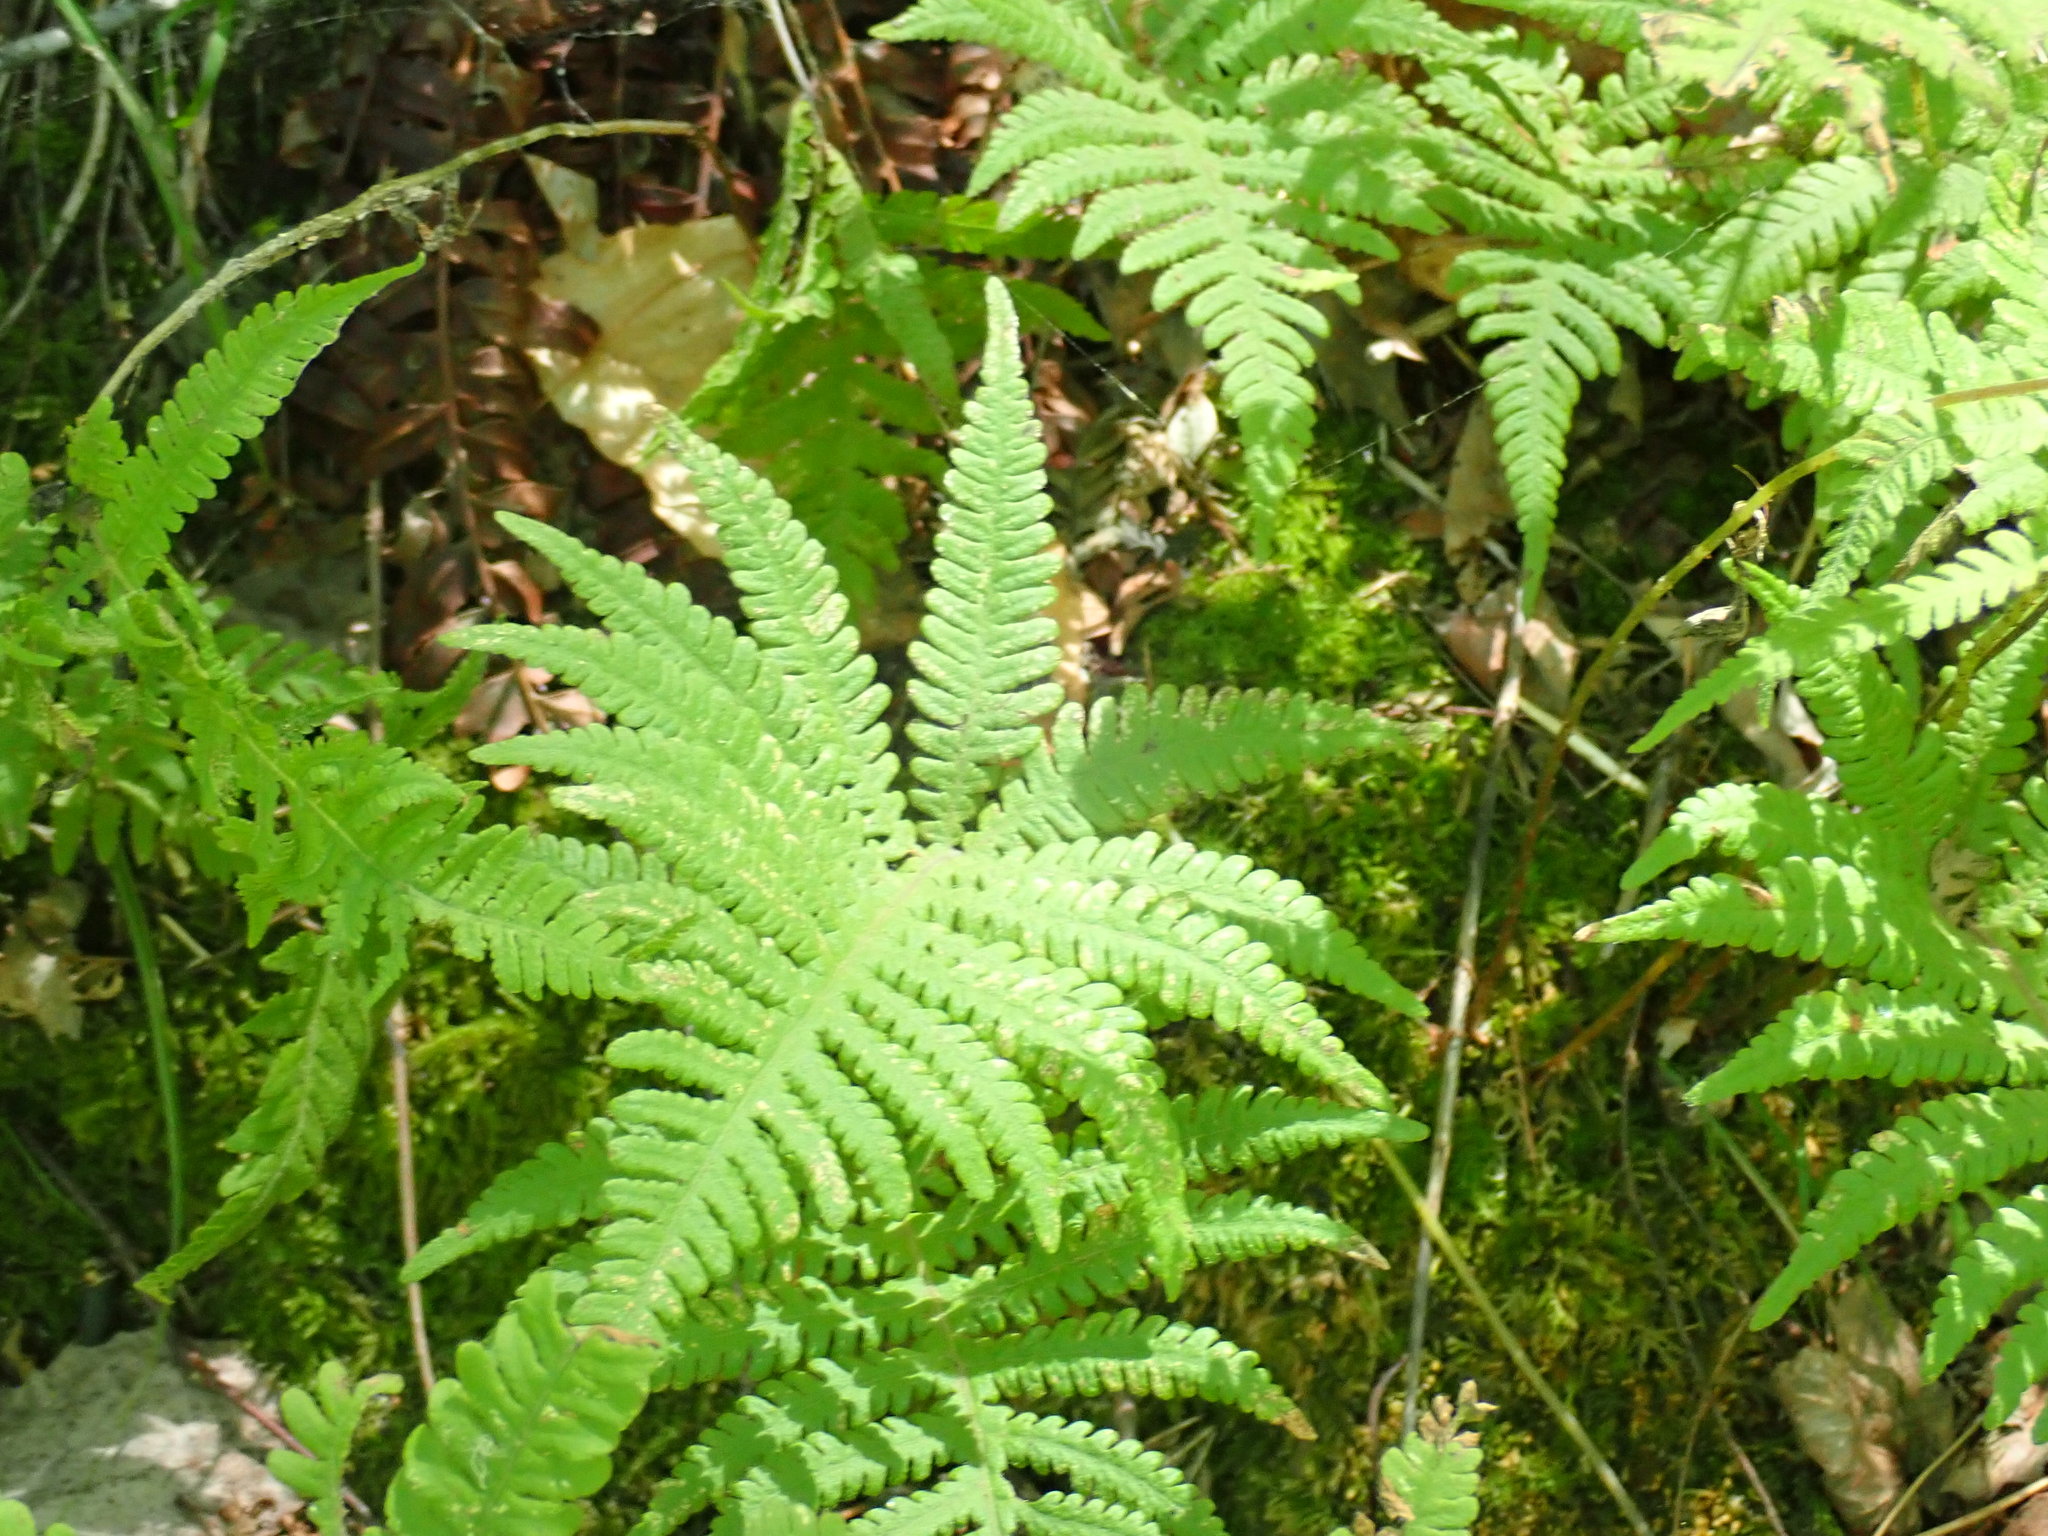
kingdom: Plantae
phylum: Tracheophyta
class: Polypodiopsida
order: Polypodiales
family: Thelypteridaceae
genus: Phegopteris
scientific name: Phegopteris connectilis
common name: Beech fern
